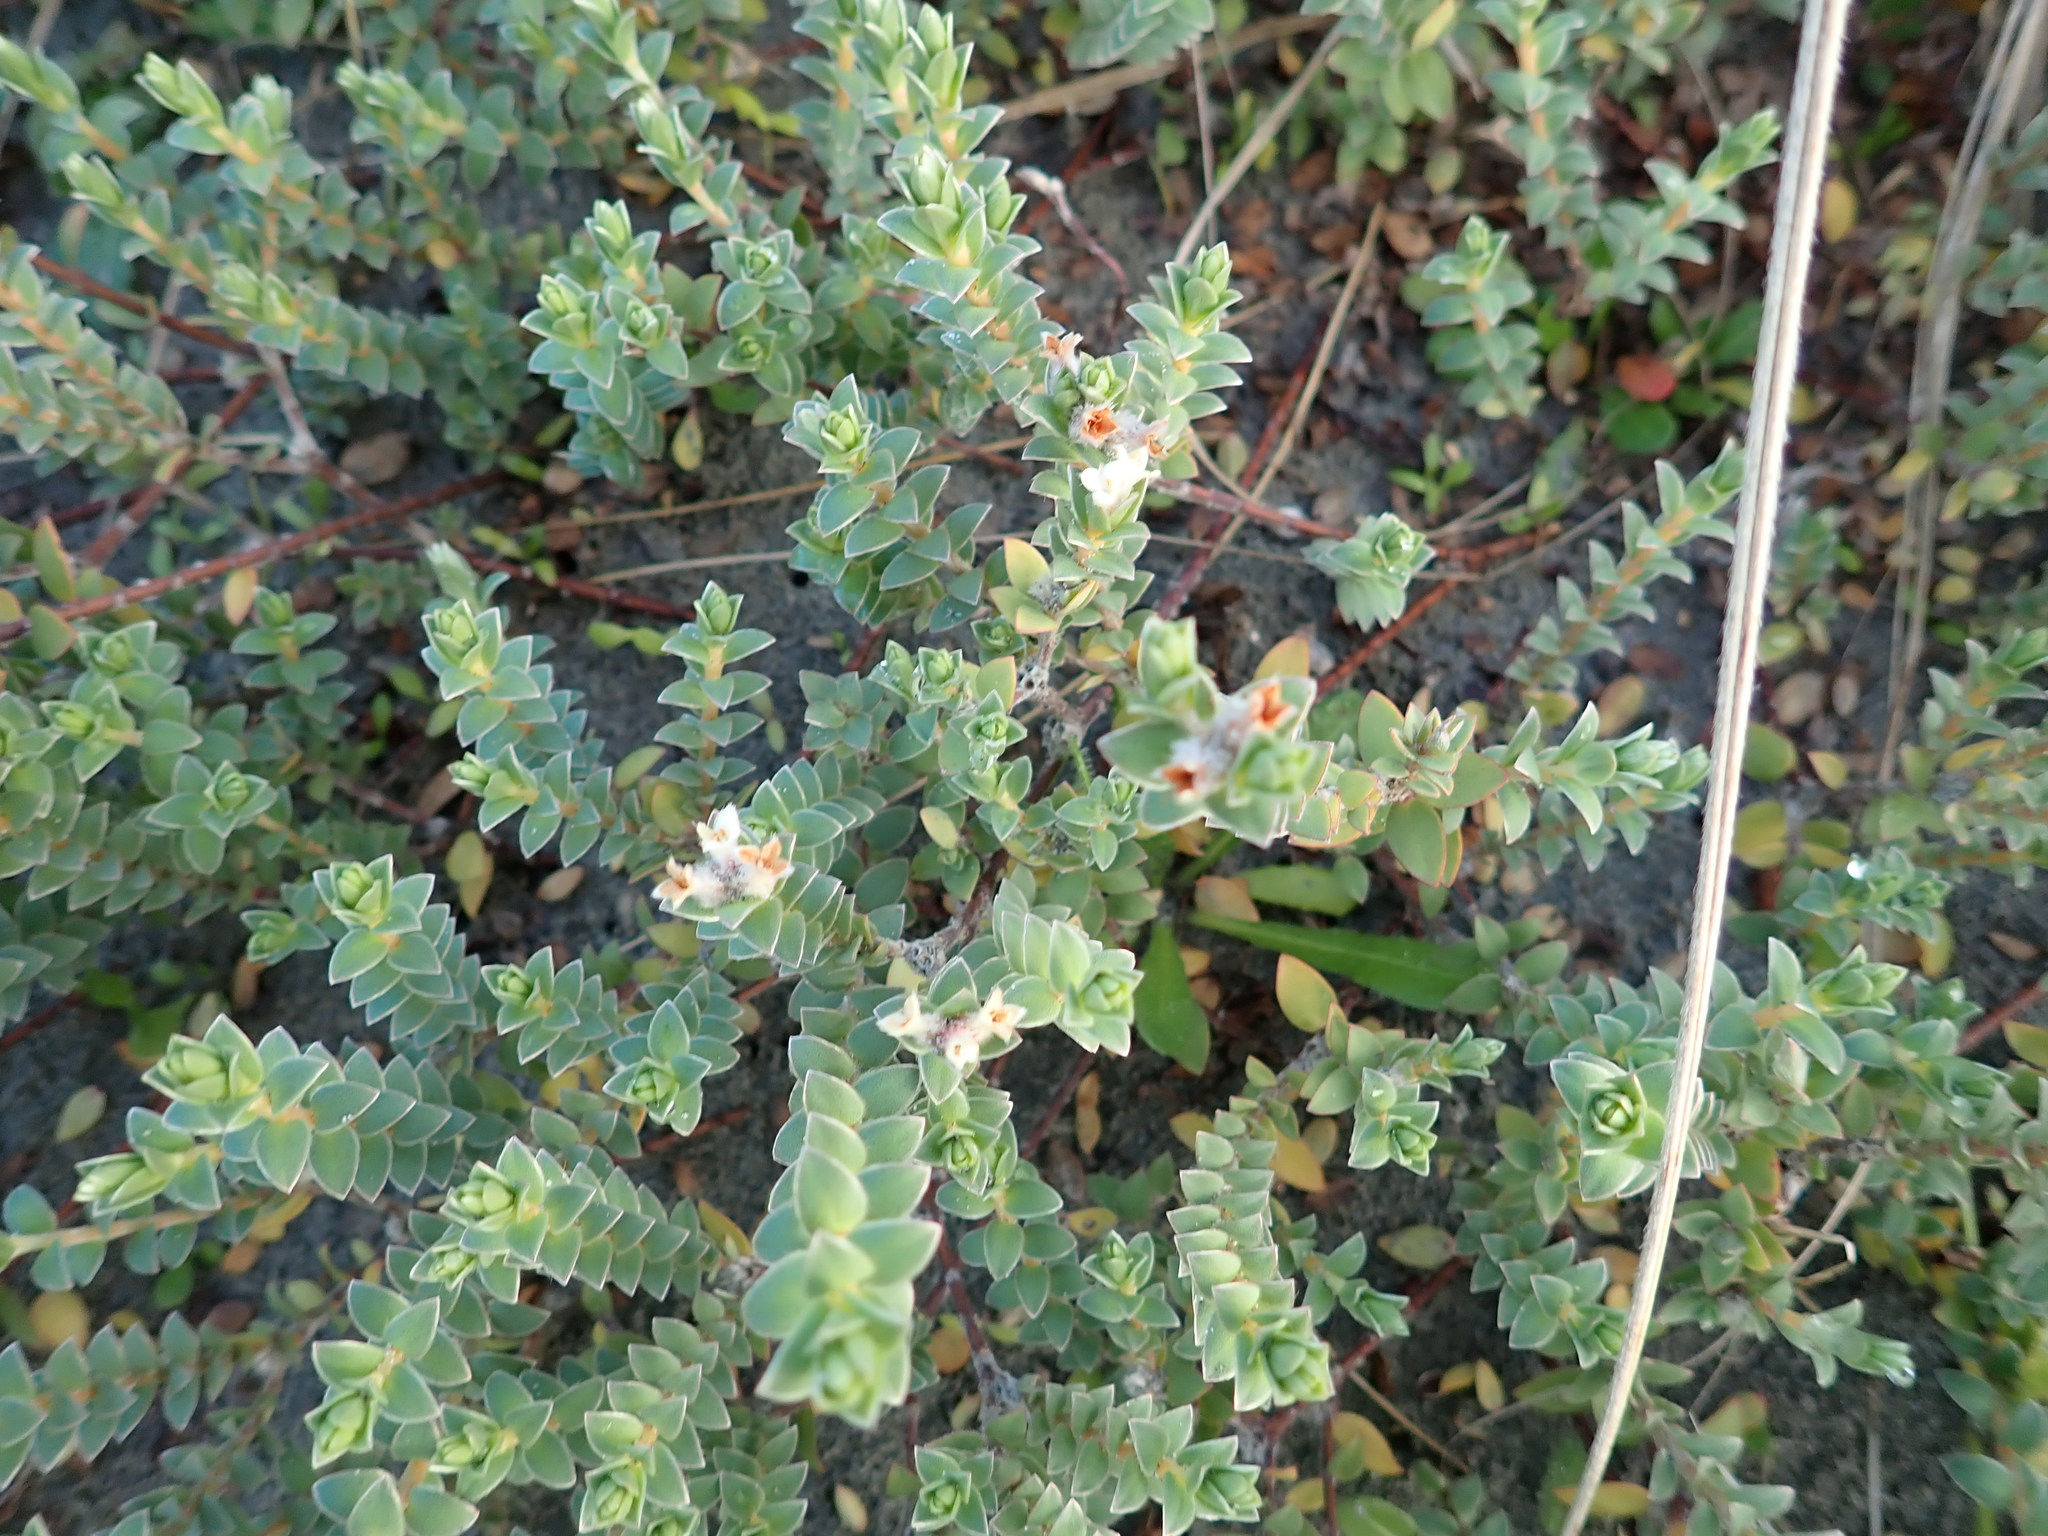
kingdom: Plantae
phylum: Tracheophyta
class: Magnoliopsida
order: Malvales
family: Thymelaeaceae
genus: Pimelea
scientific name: Pimelea villosa
